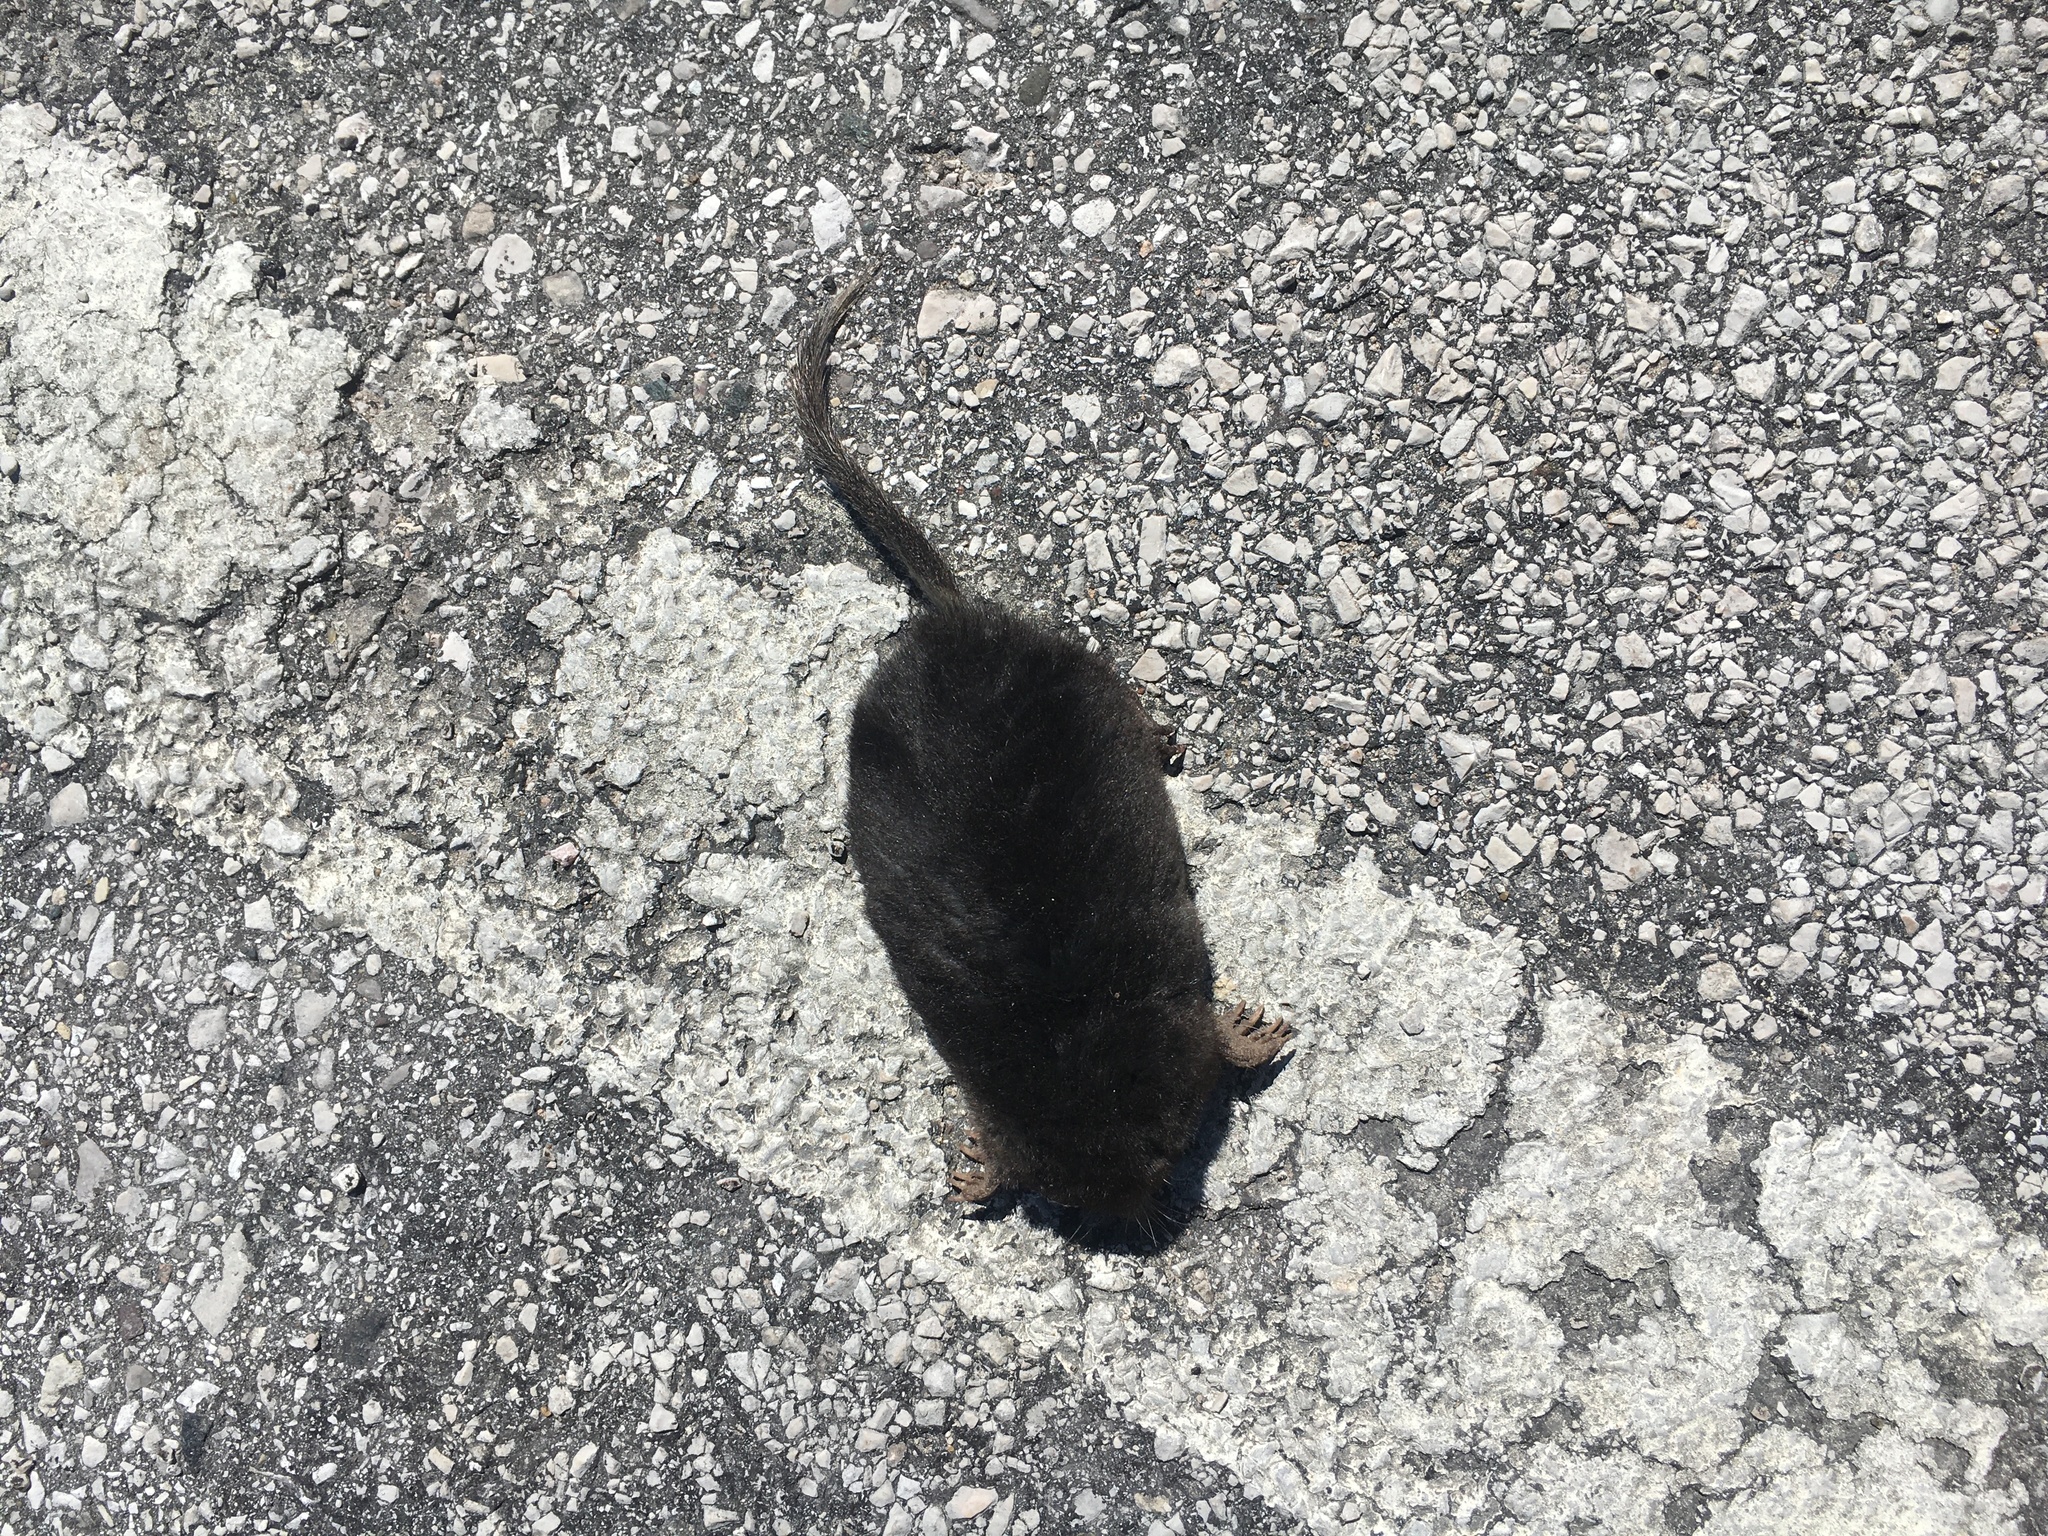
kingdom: Animalia
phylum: Chordata
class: Mammalia
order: Soricomorpha
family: Talpidae
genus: Condylura
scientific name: Condylura cristata
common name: Star-nosed mole
